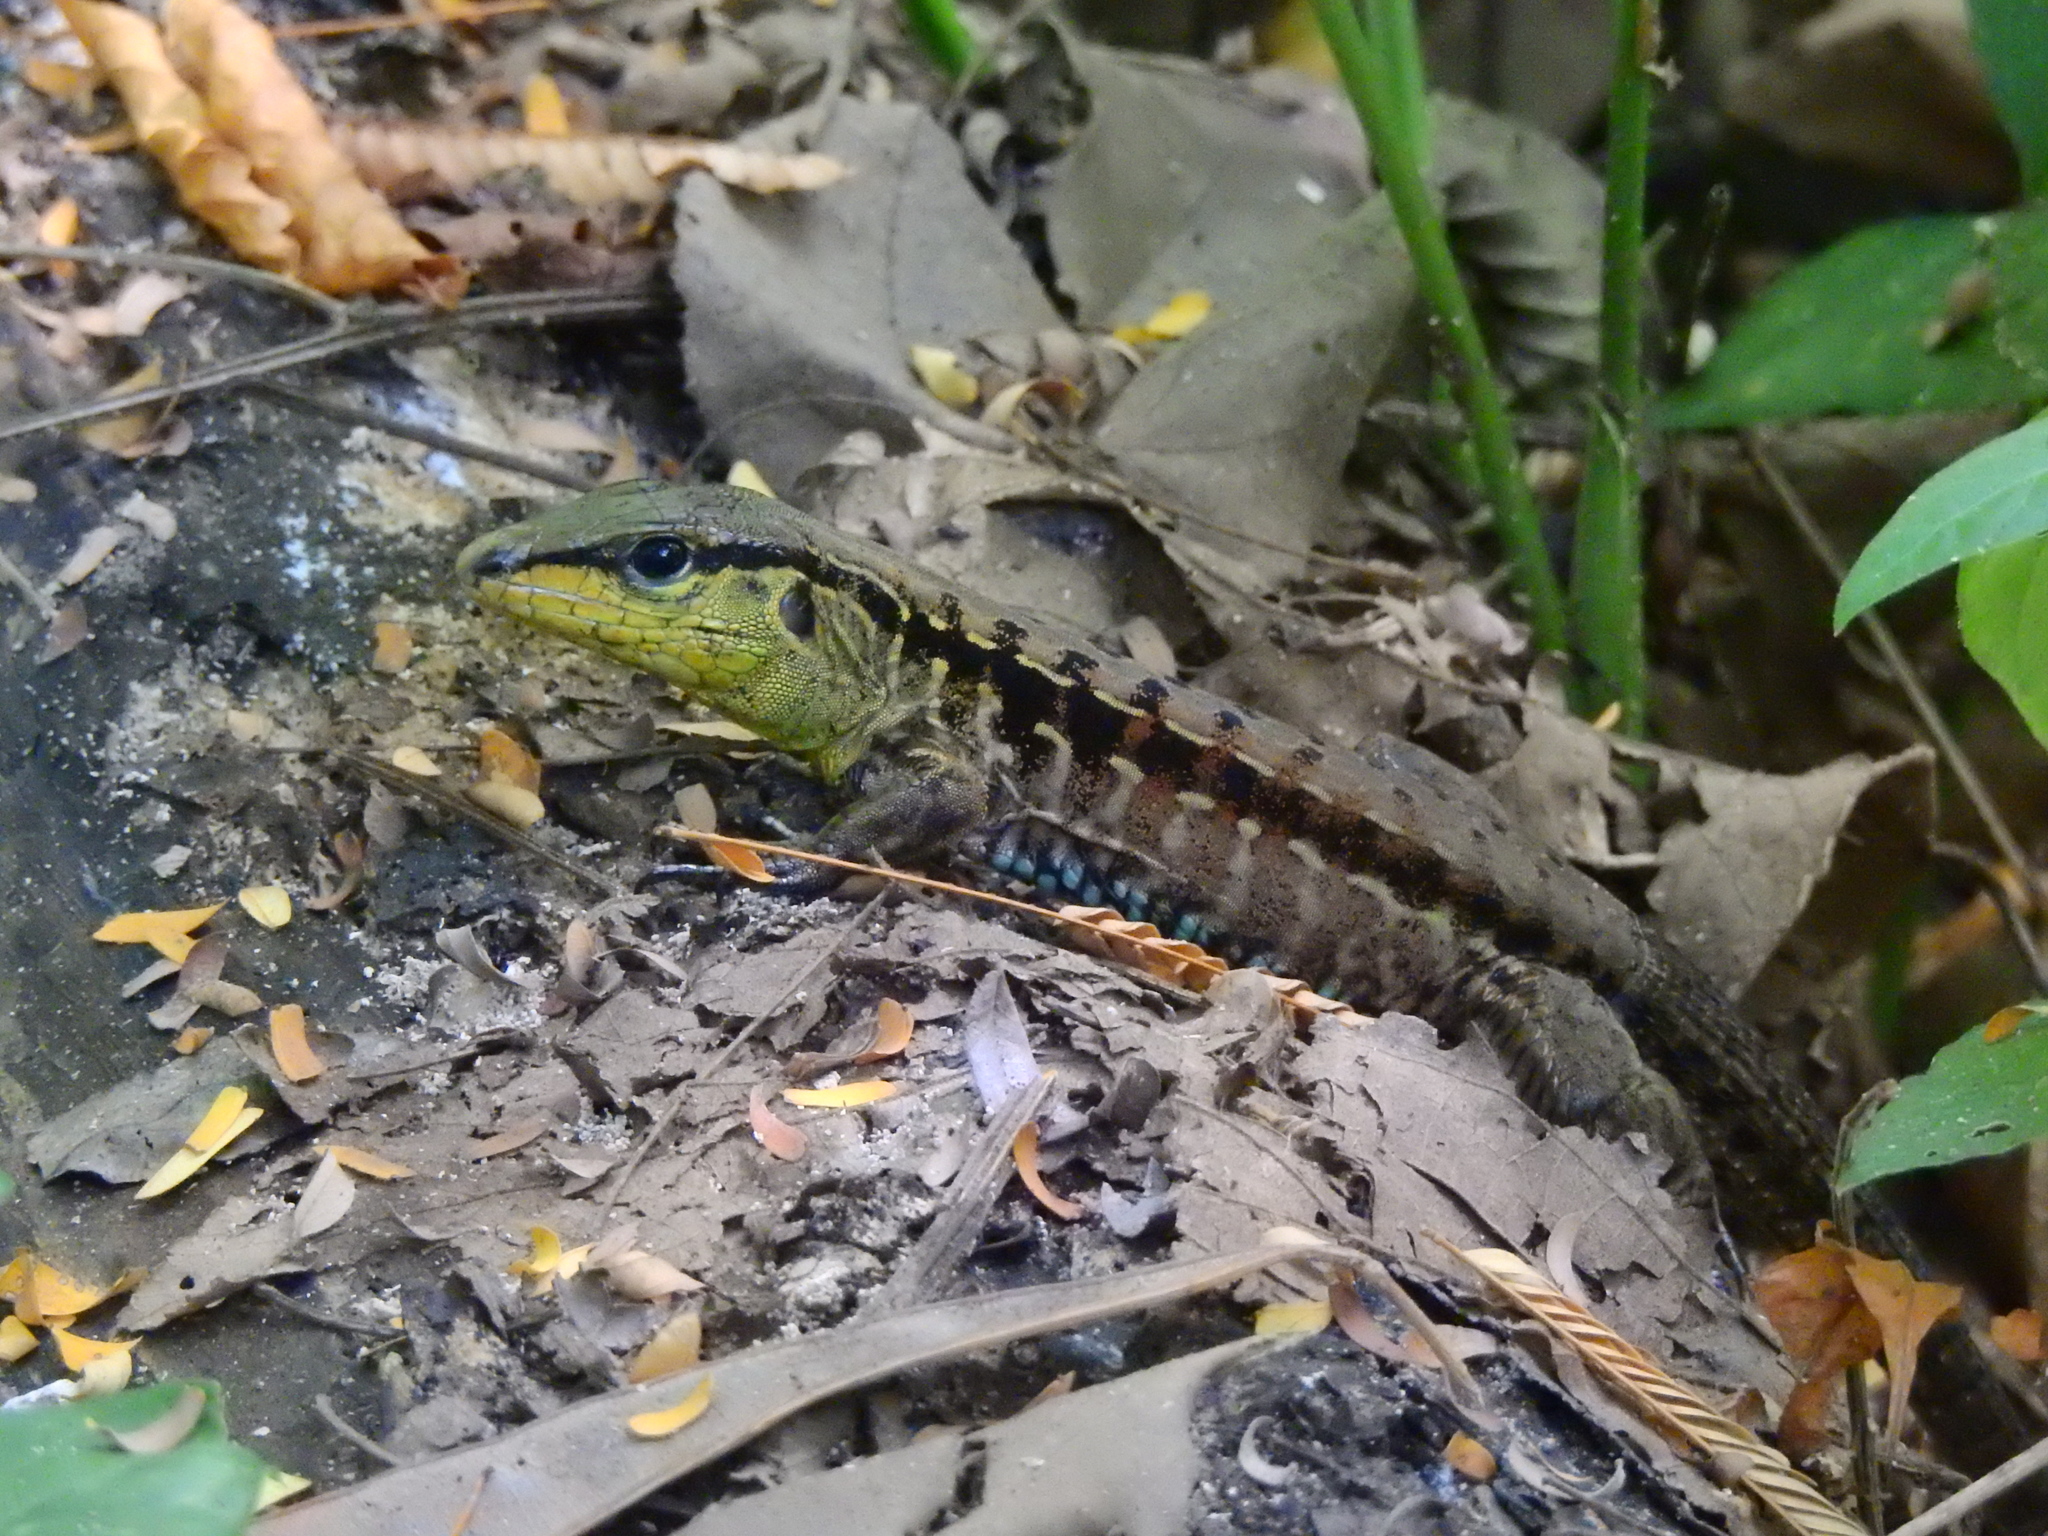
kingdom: Animalia
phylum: Chordata
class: Squamata
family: Teiidae
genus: Holcosus
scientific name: Holcosus festivus
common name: Middle american ameiva
